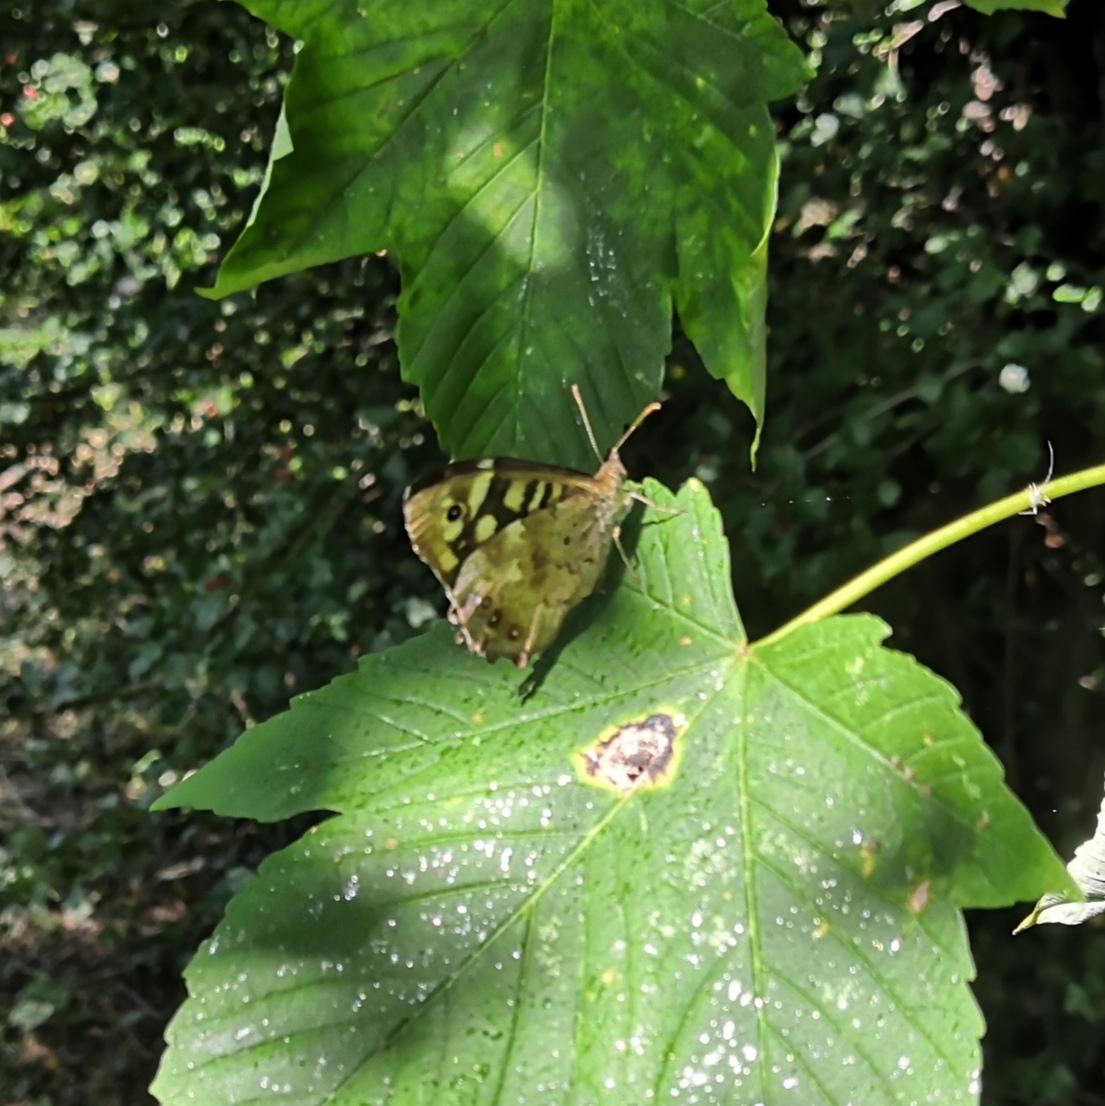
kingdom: Animalia
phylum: Arthropoda
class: Insecta
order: Lepidoptera
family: Nymphalidae
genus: Pararge
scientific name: Pararge aegeria
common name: Speckled wood
